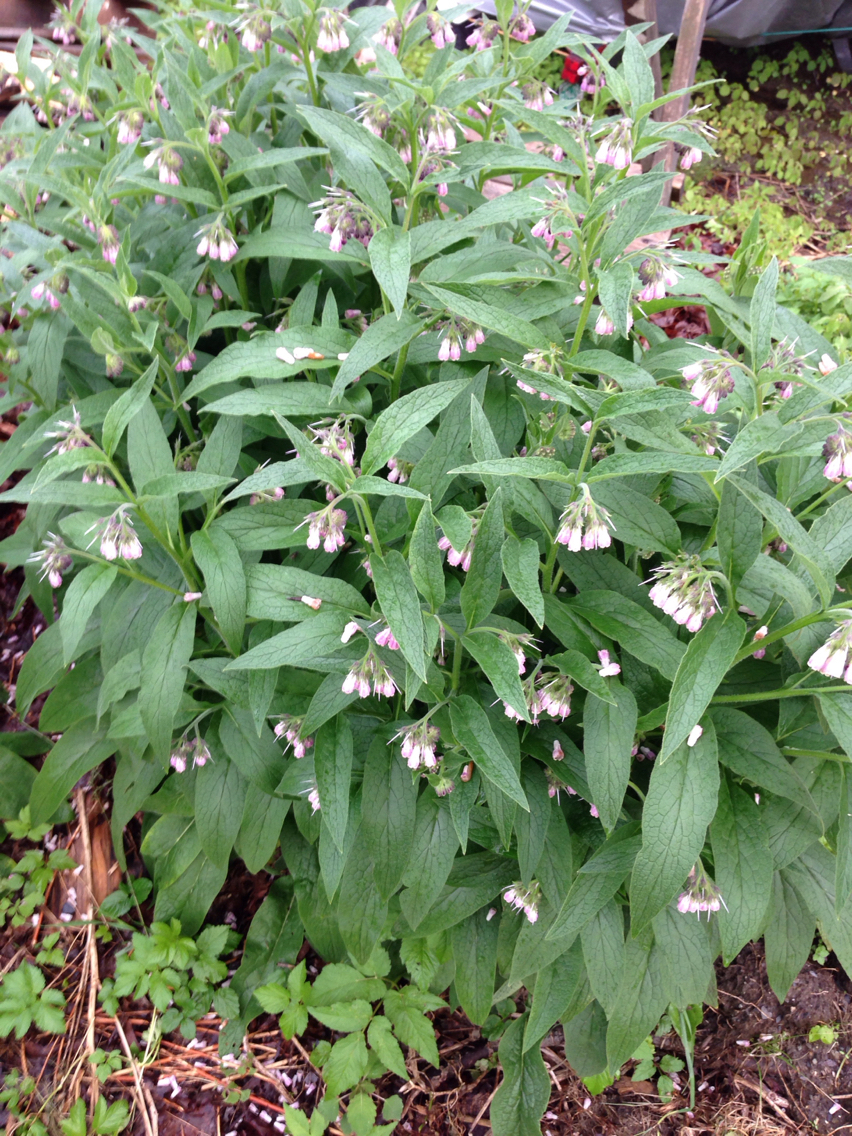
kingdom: Plantae
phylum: Tracheophyta
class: Magnoliopsida
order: Boraginales
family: Boraginaceae
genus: Symphytum
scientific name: Symphytum officinale
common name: Common comfrey
